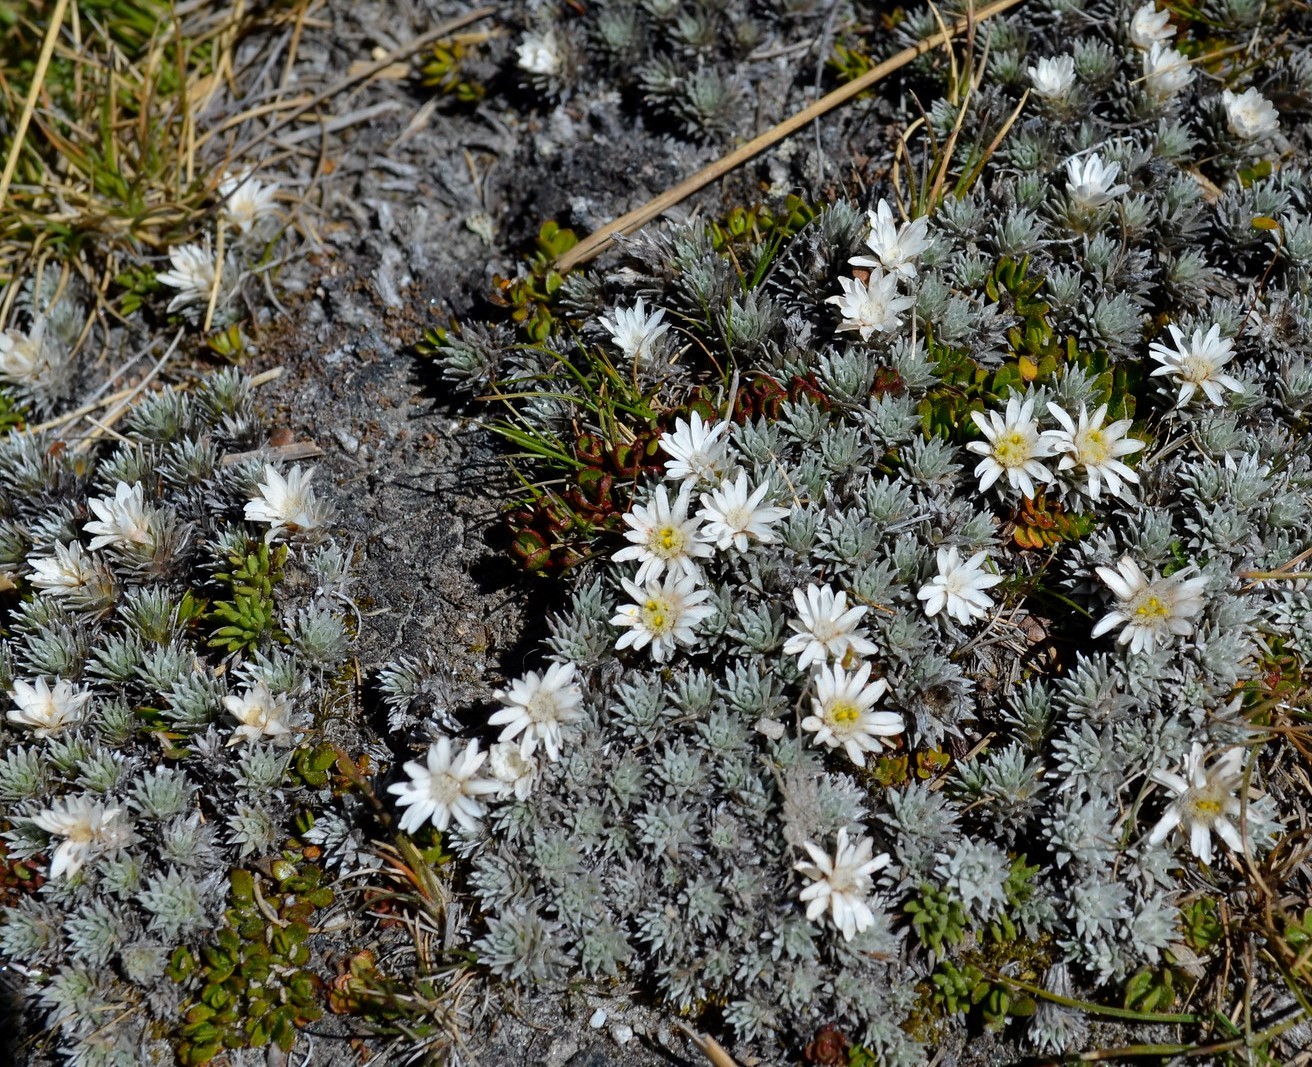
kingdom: Plantae
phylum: Tracheophyta
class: Magnoliopsida
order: Asterales
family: Asteraceae
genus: Raoulia
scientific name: Raoulia grandiflora
